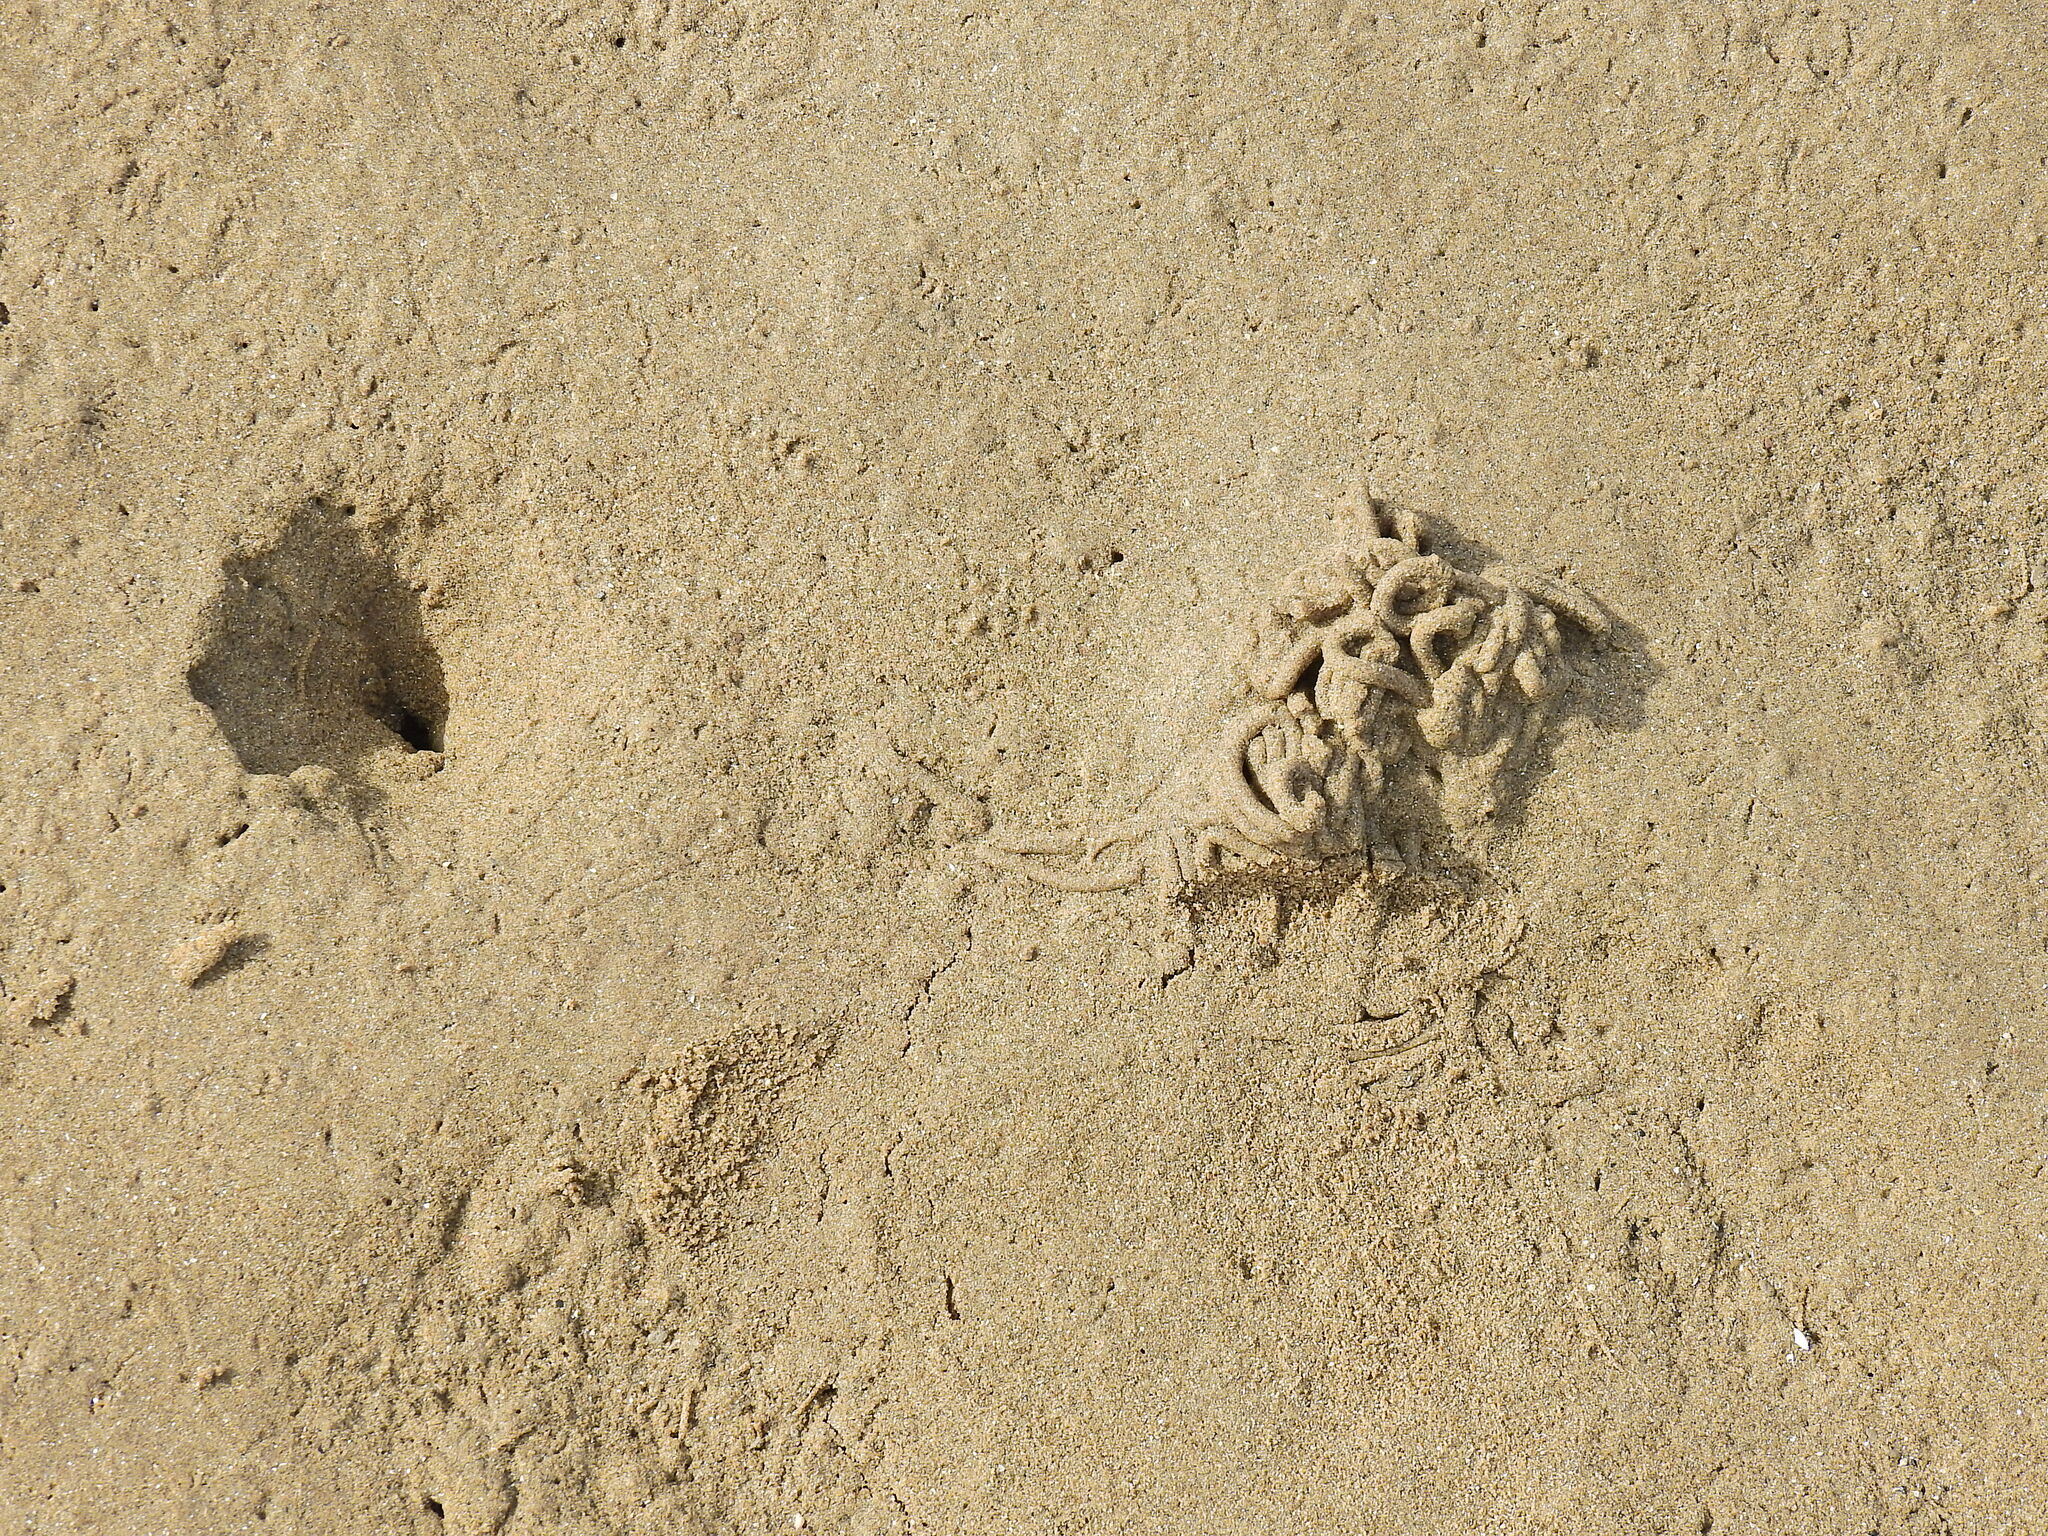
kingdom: Animalia
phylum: Annelida
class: Polychaeta
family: Arenicolidae
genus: Arenicola
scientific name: Arenicola marina
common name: Blow lugworm
